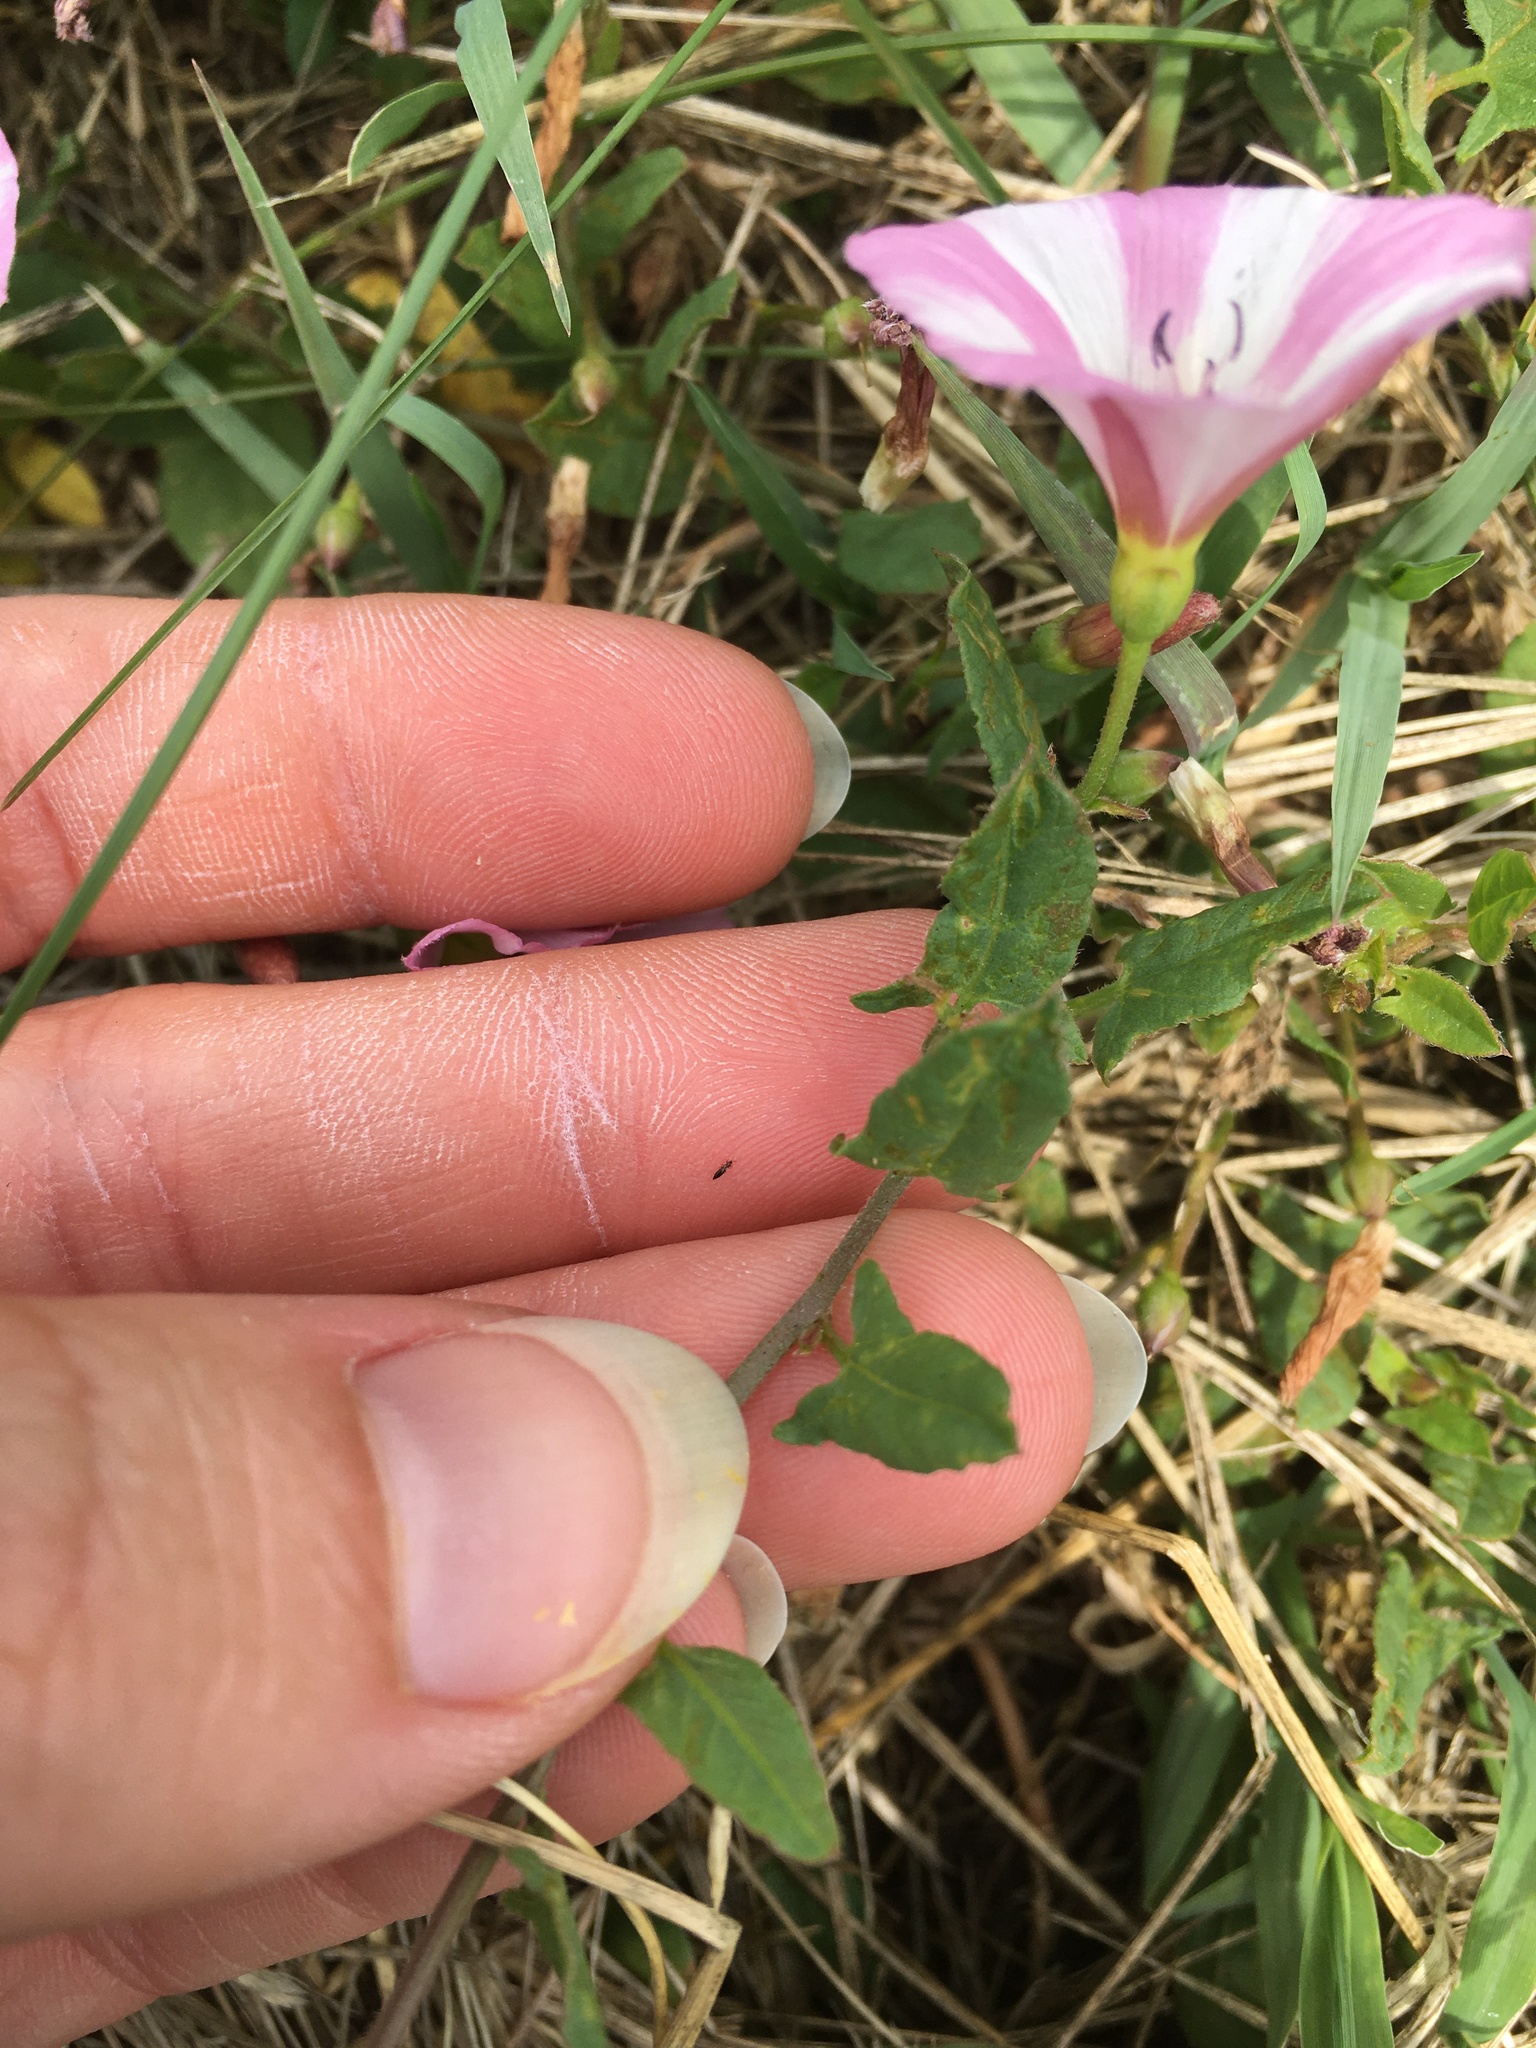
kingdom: Plantae
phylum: Tracheophyta
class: Magnoliopsida
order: Solanales
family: Convolvulaceae
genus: Convolvulus
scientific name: Convolvulus arvensis
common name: Field bindweed
